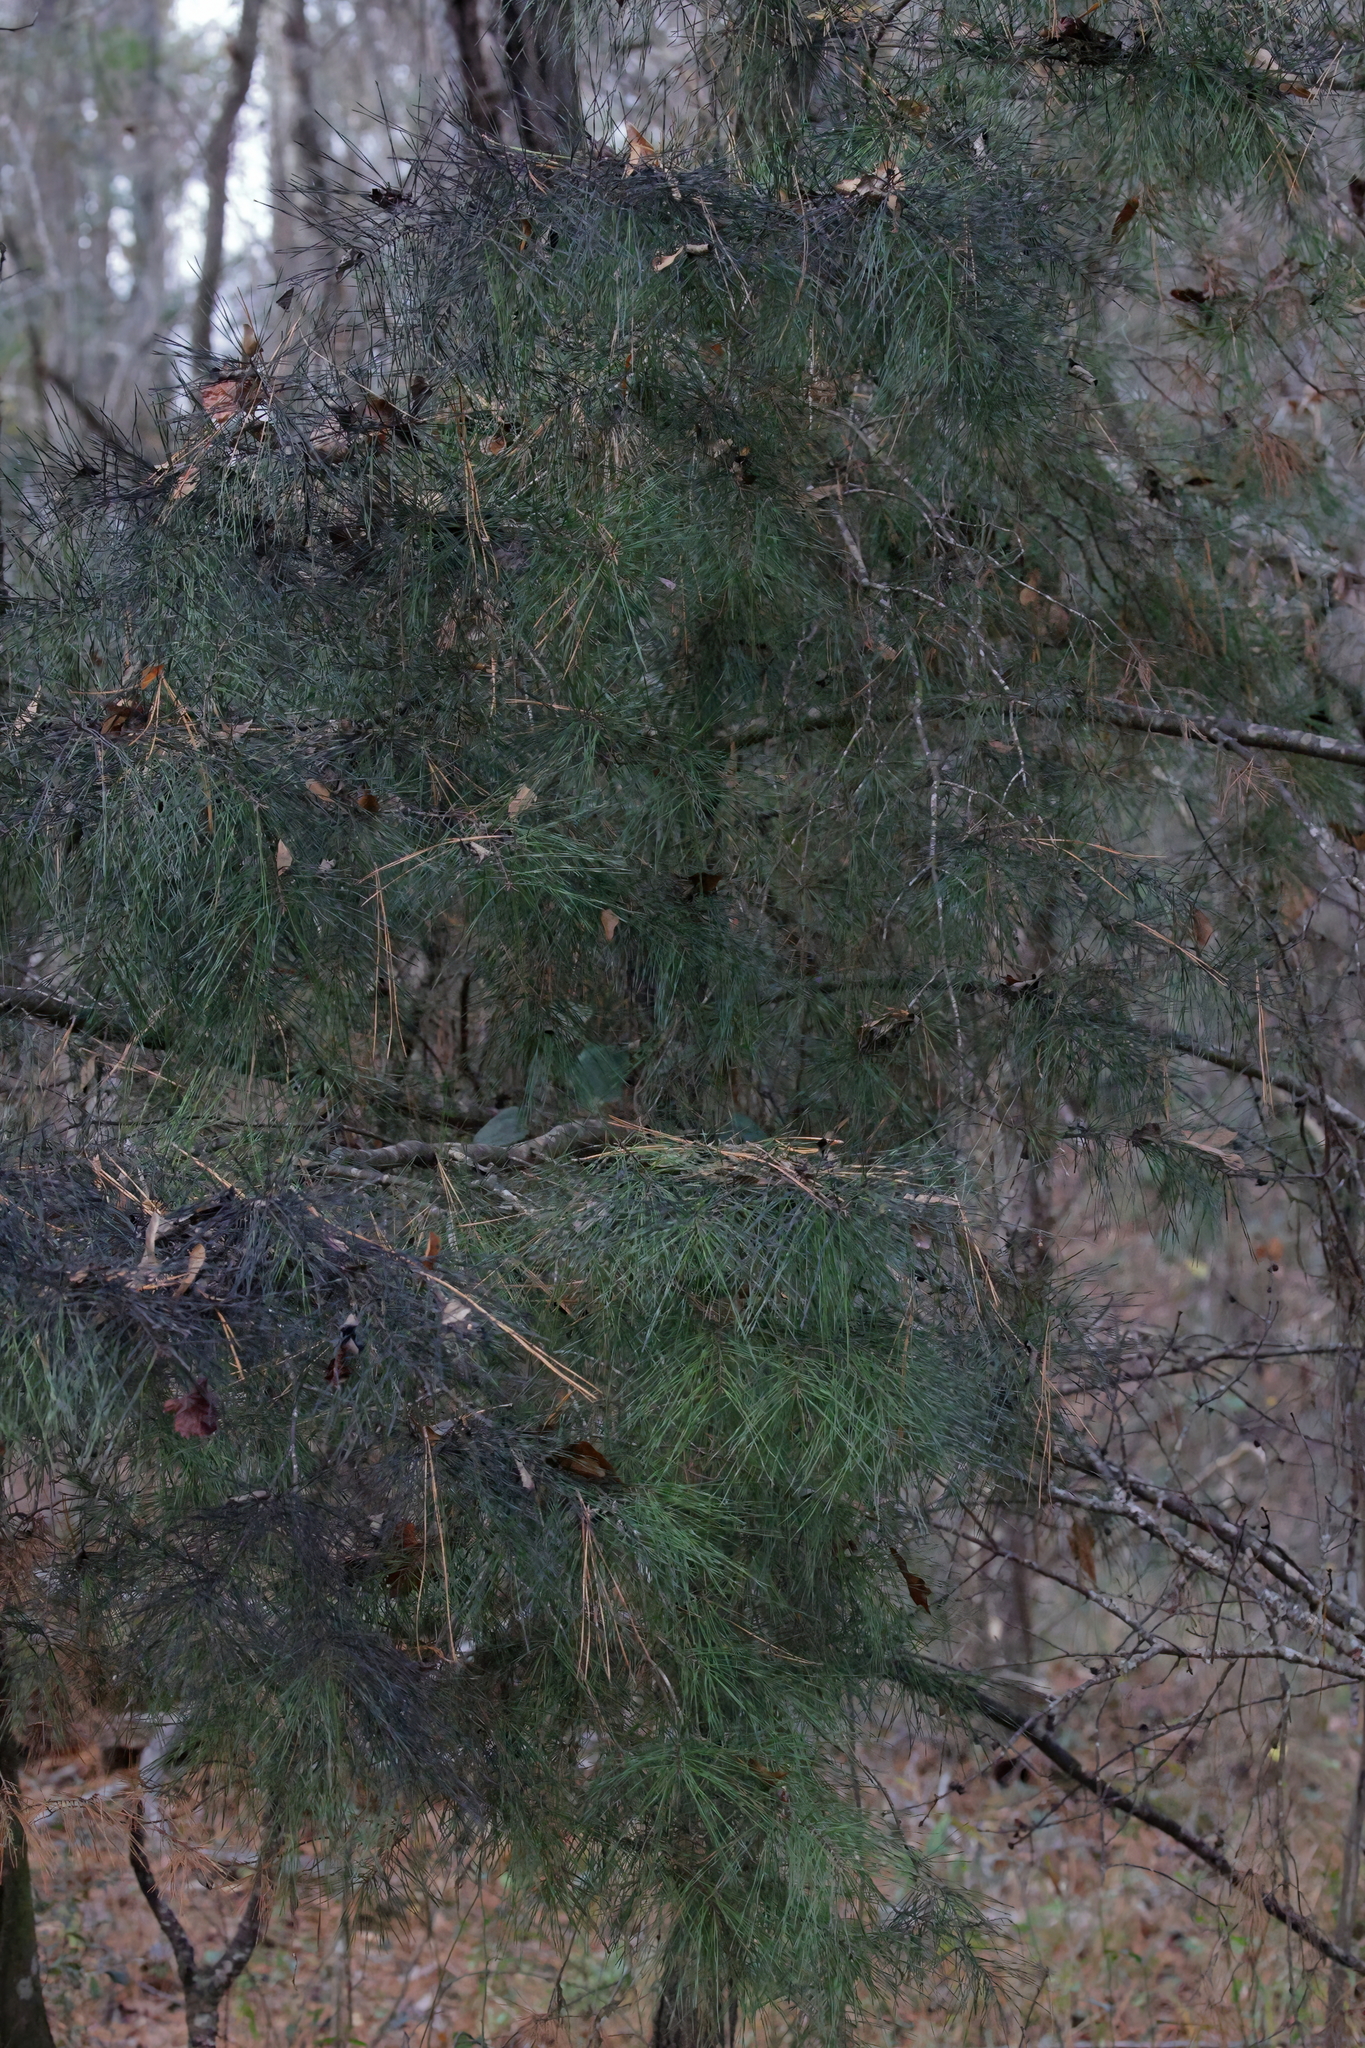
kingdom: Plantae
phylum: Tracheophyta
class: Pinopsida
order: Pinales
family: Pinaceae
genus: Pinus
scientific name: Pinus glabra
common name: Spruce pine
